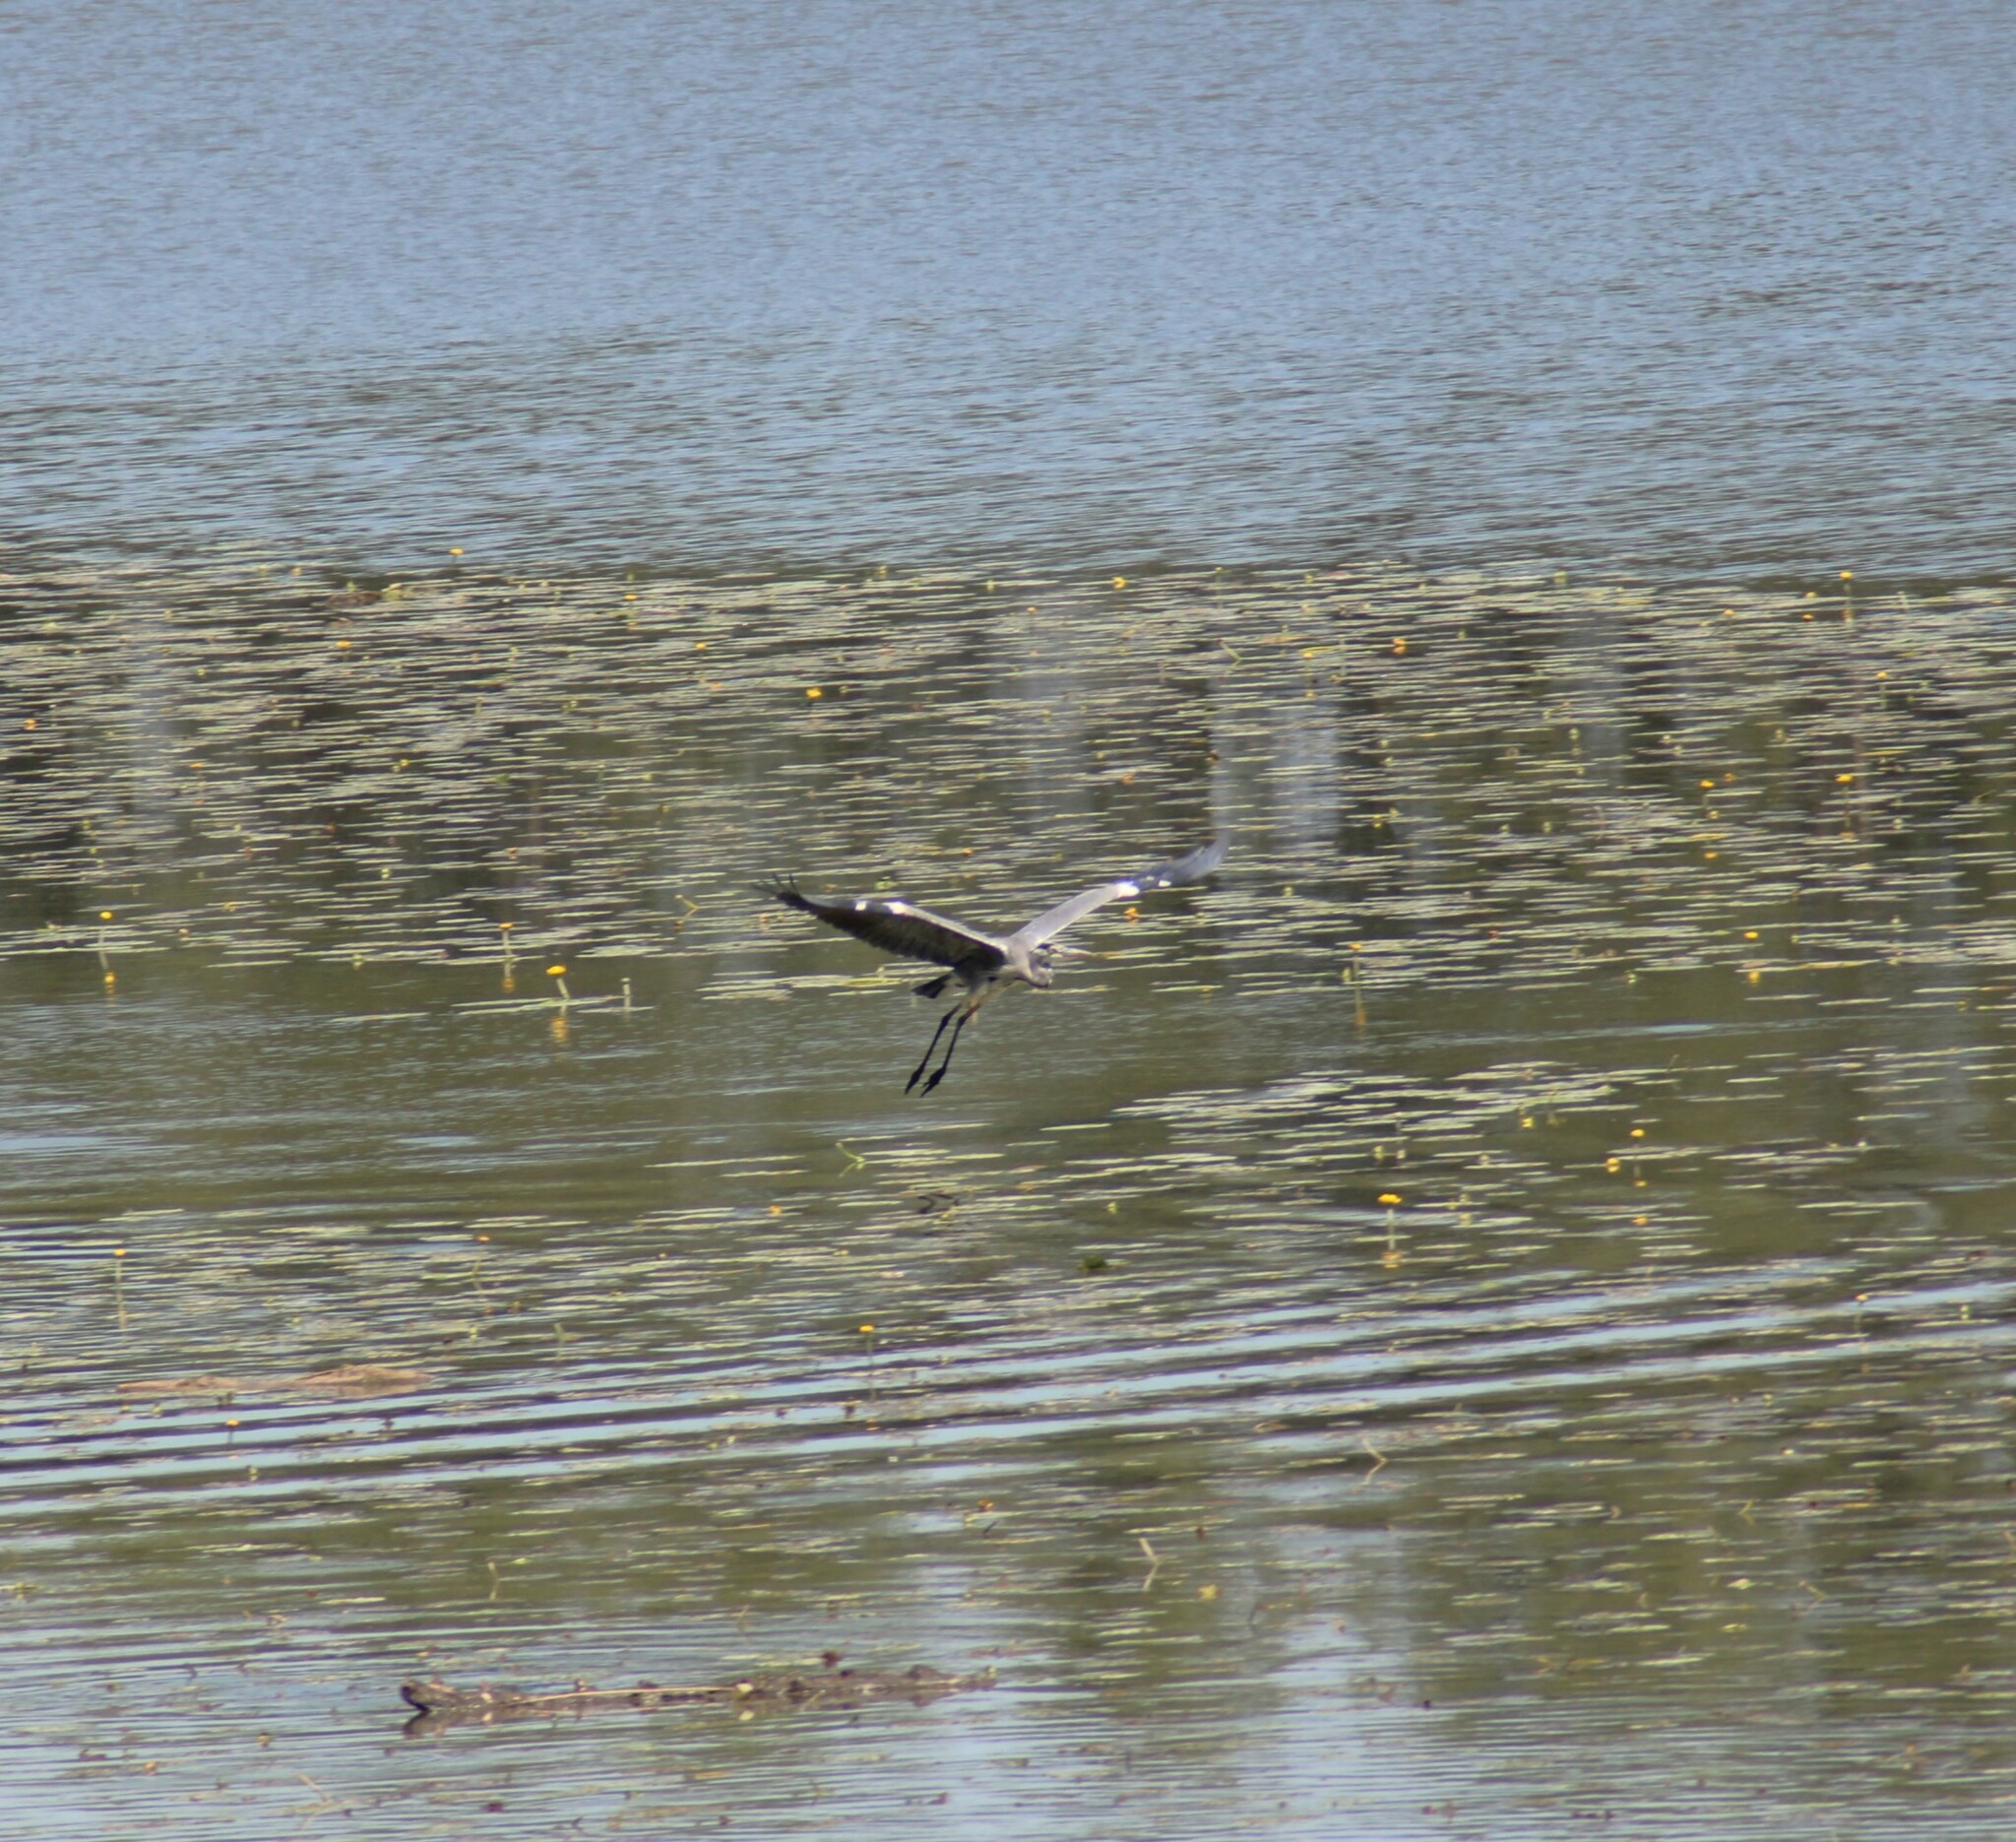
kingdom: Animalia
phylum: Chordata
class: Aves
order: Pelecaniformes
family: Ardeidae
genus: Ardea
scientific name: Ardea cinerea
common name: Grey heron
